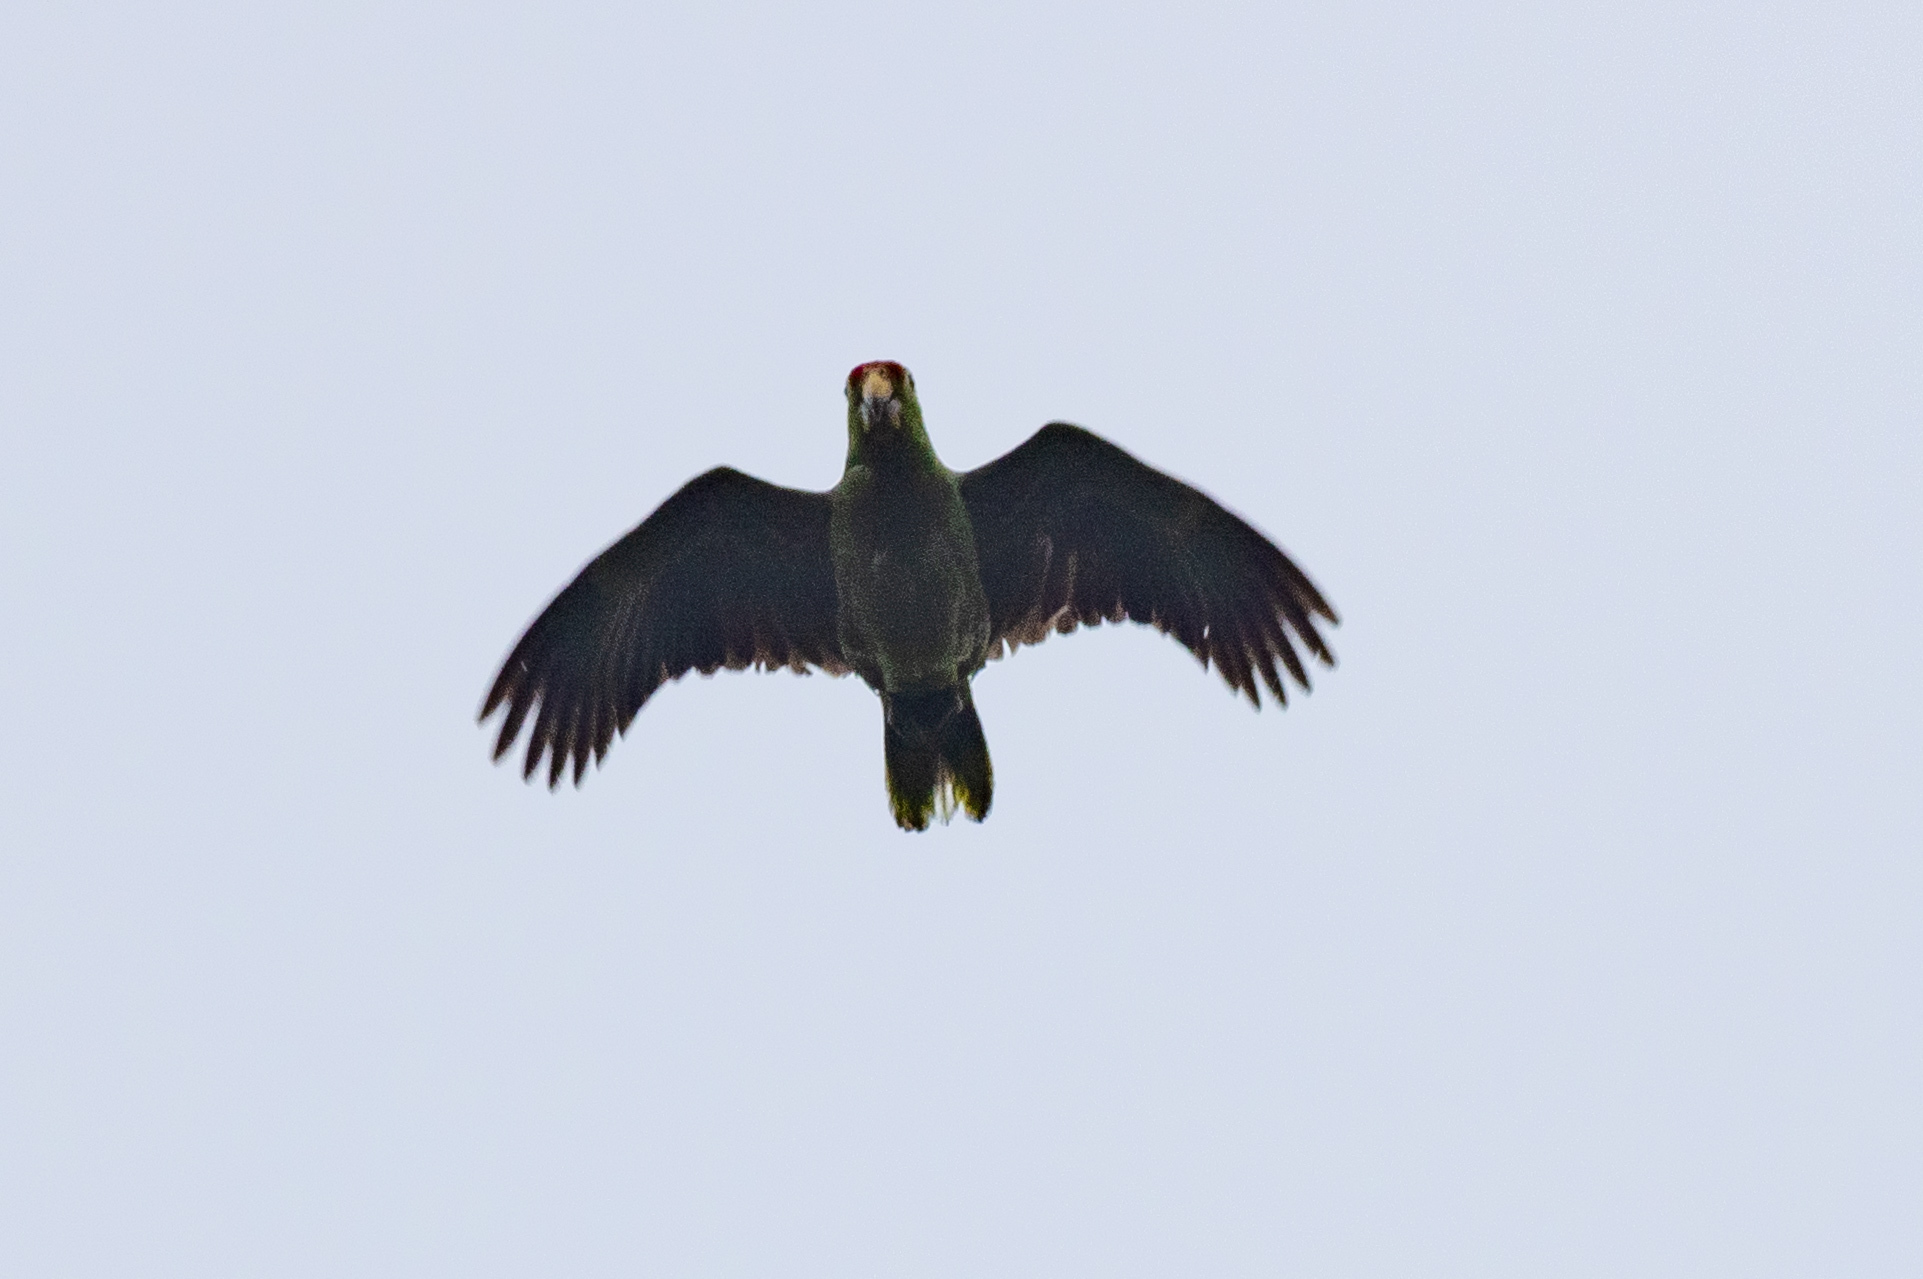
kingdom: Animalia
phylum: Chordata
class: Aves
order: Psittaciformes
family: Psittacidae
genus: Amazona
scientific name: Amazona autumnalis
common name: Red-lored amazon
